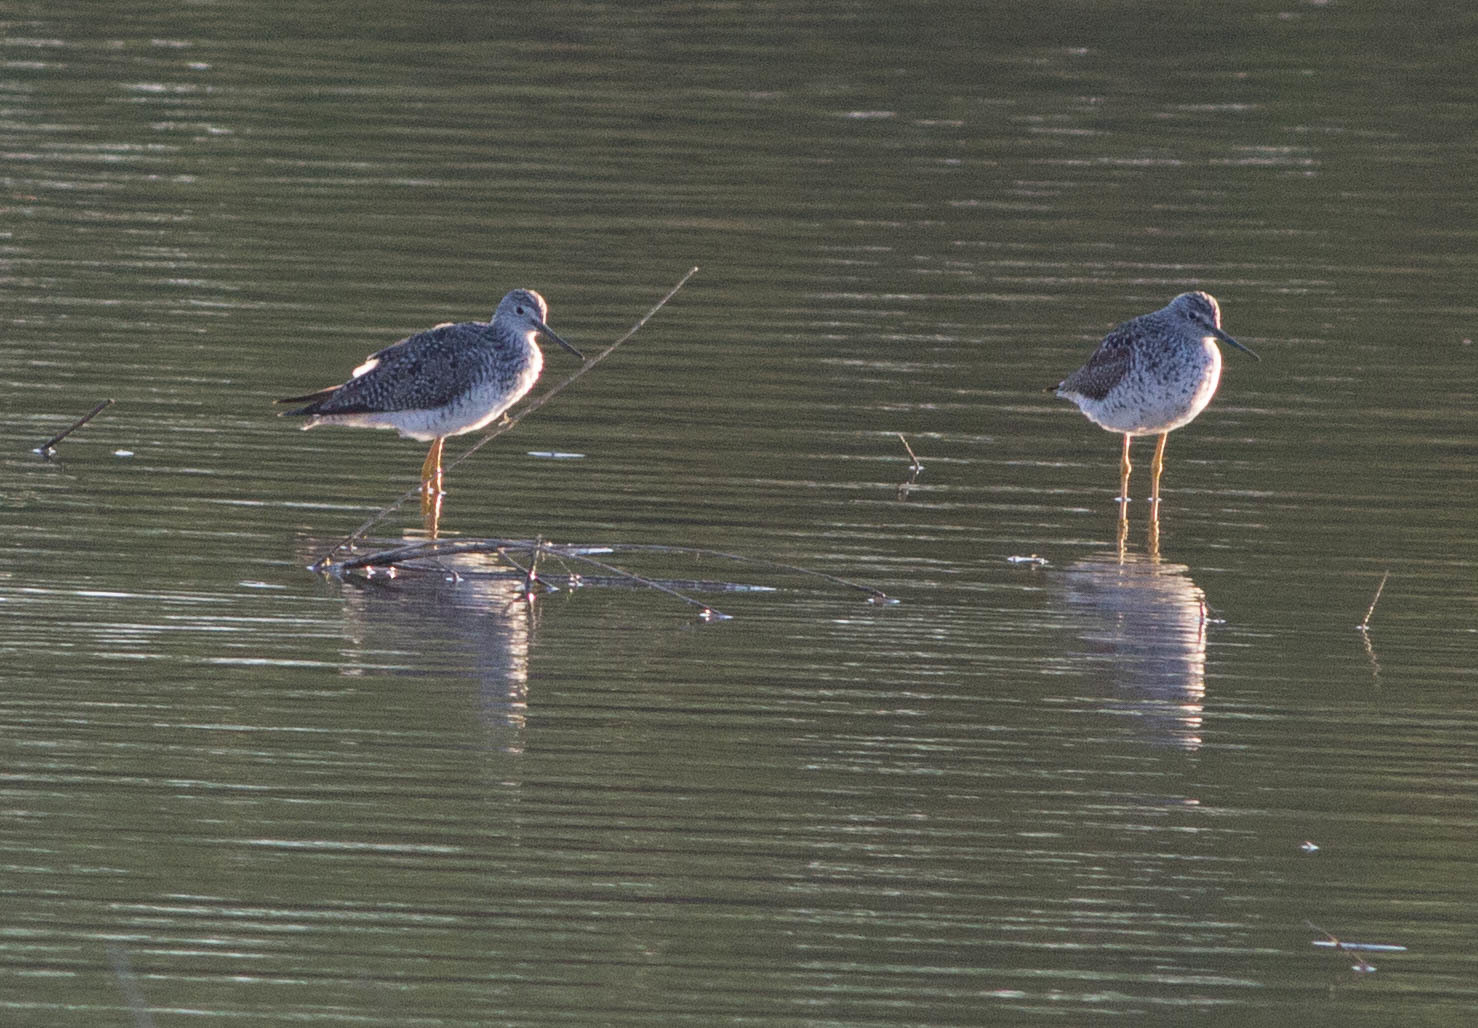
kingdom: Animalia
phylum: Chordata
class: Aves
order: Charadriiformes
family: Scolopacidae
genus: Tringa
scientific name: Tringa melanoleuca
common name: Greater yellowlegs
